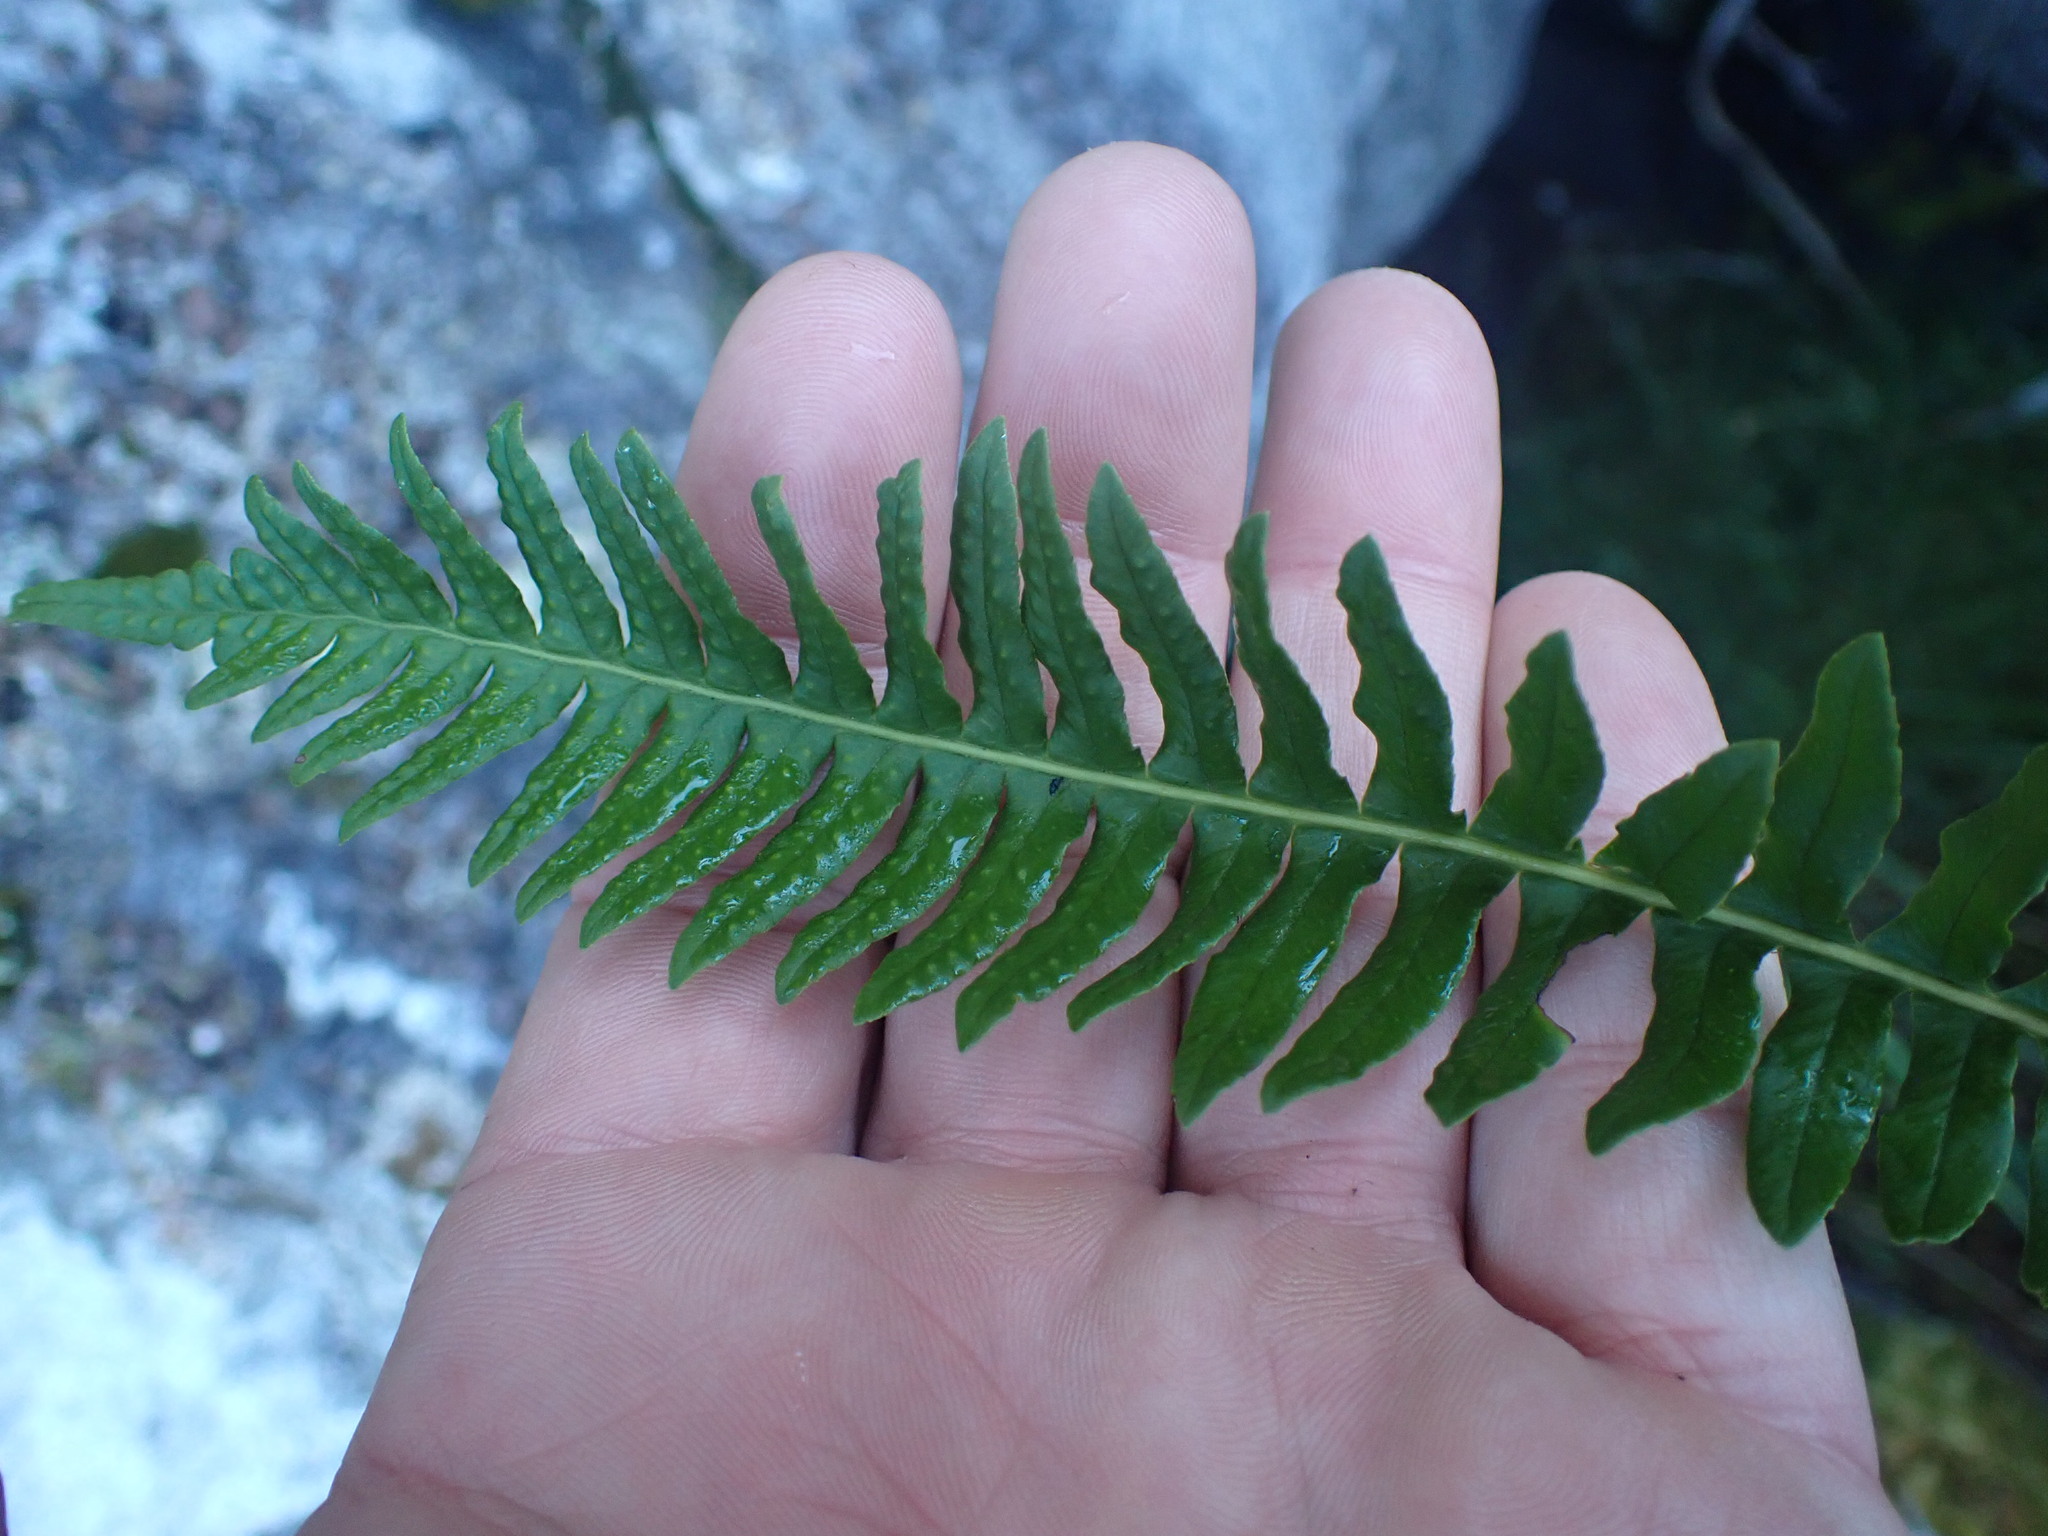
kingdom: Plantae
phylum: Tracheophyta
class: Polypodiopsida
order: Polypodiales
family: Polypodiaceae
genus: Polypodium
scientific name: Polypodium glycyrrhiza
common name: Licorice fern
